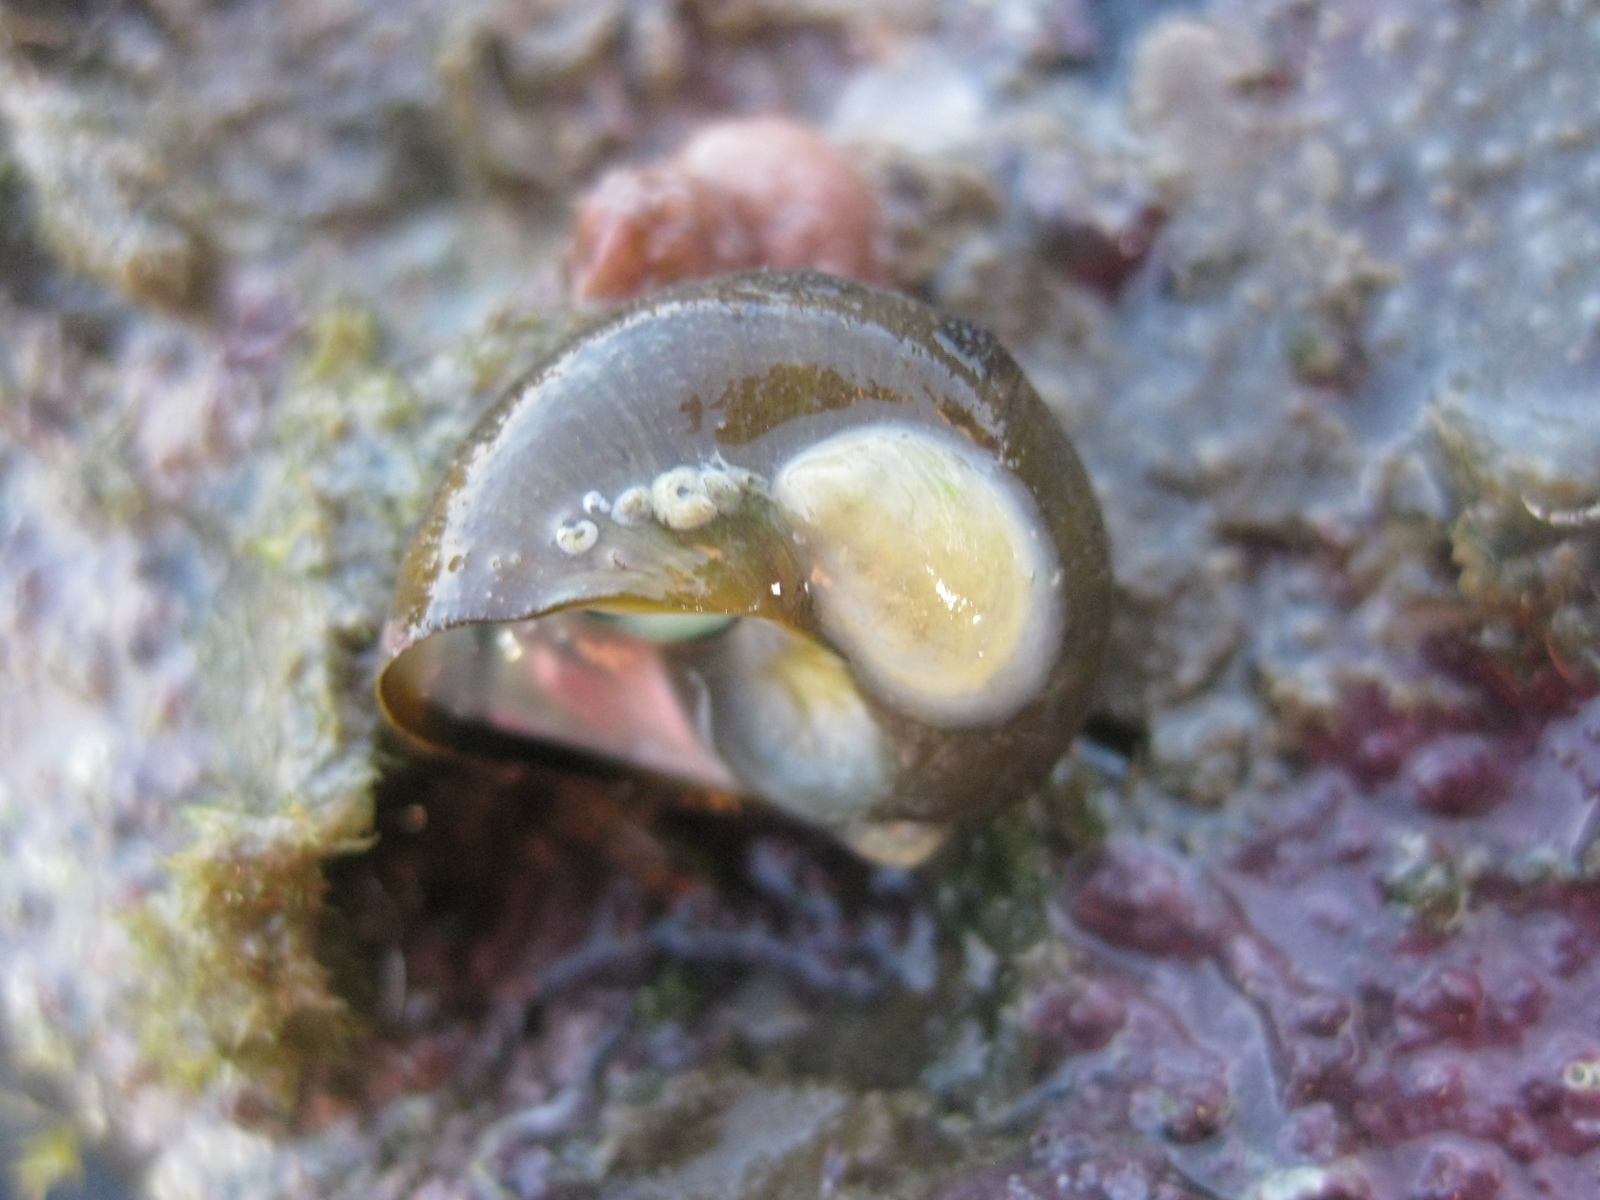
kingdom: Animalia
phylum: Mollusca
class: Gastropoda
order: Littorinimorpha
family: Calyptraeidae
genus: Maoricrypta
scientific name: Maoricrypta monoxyla
